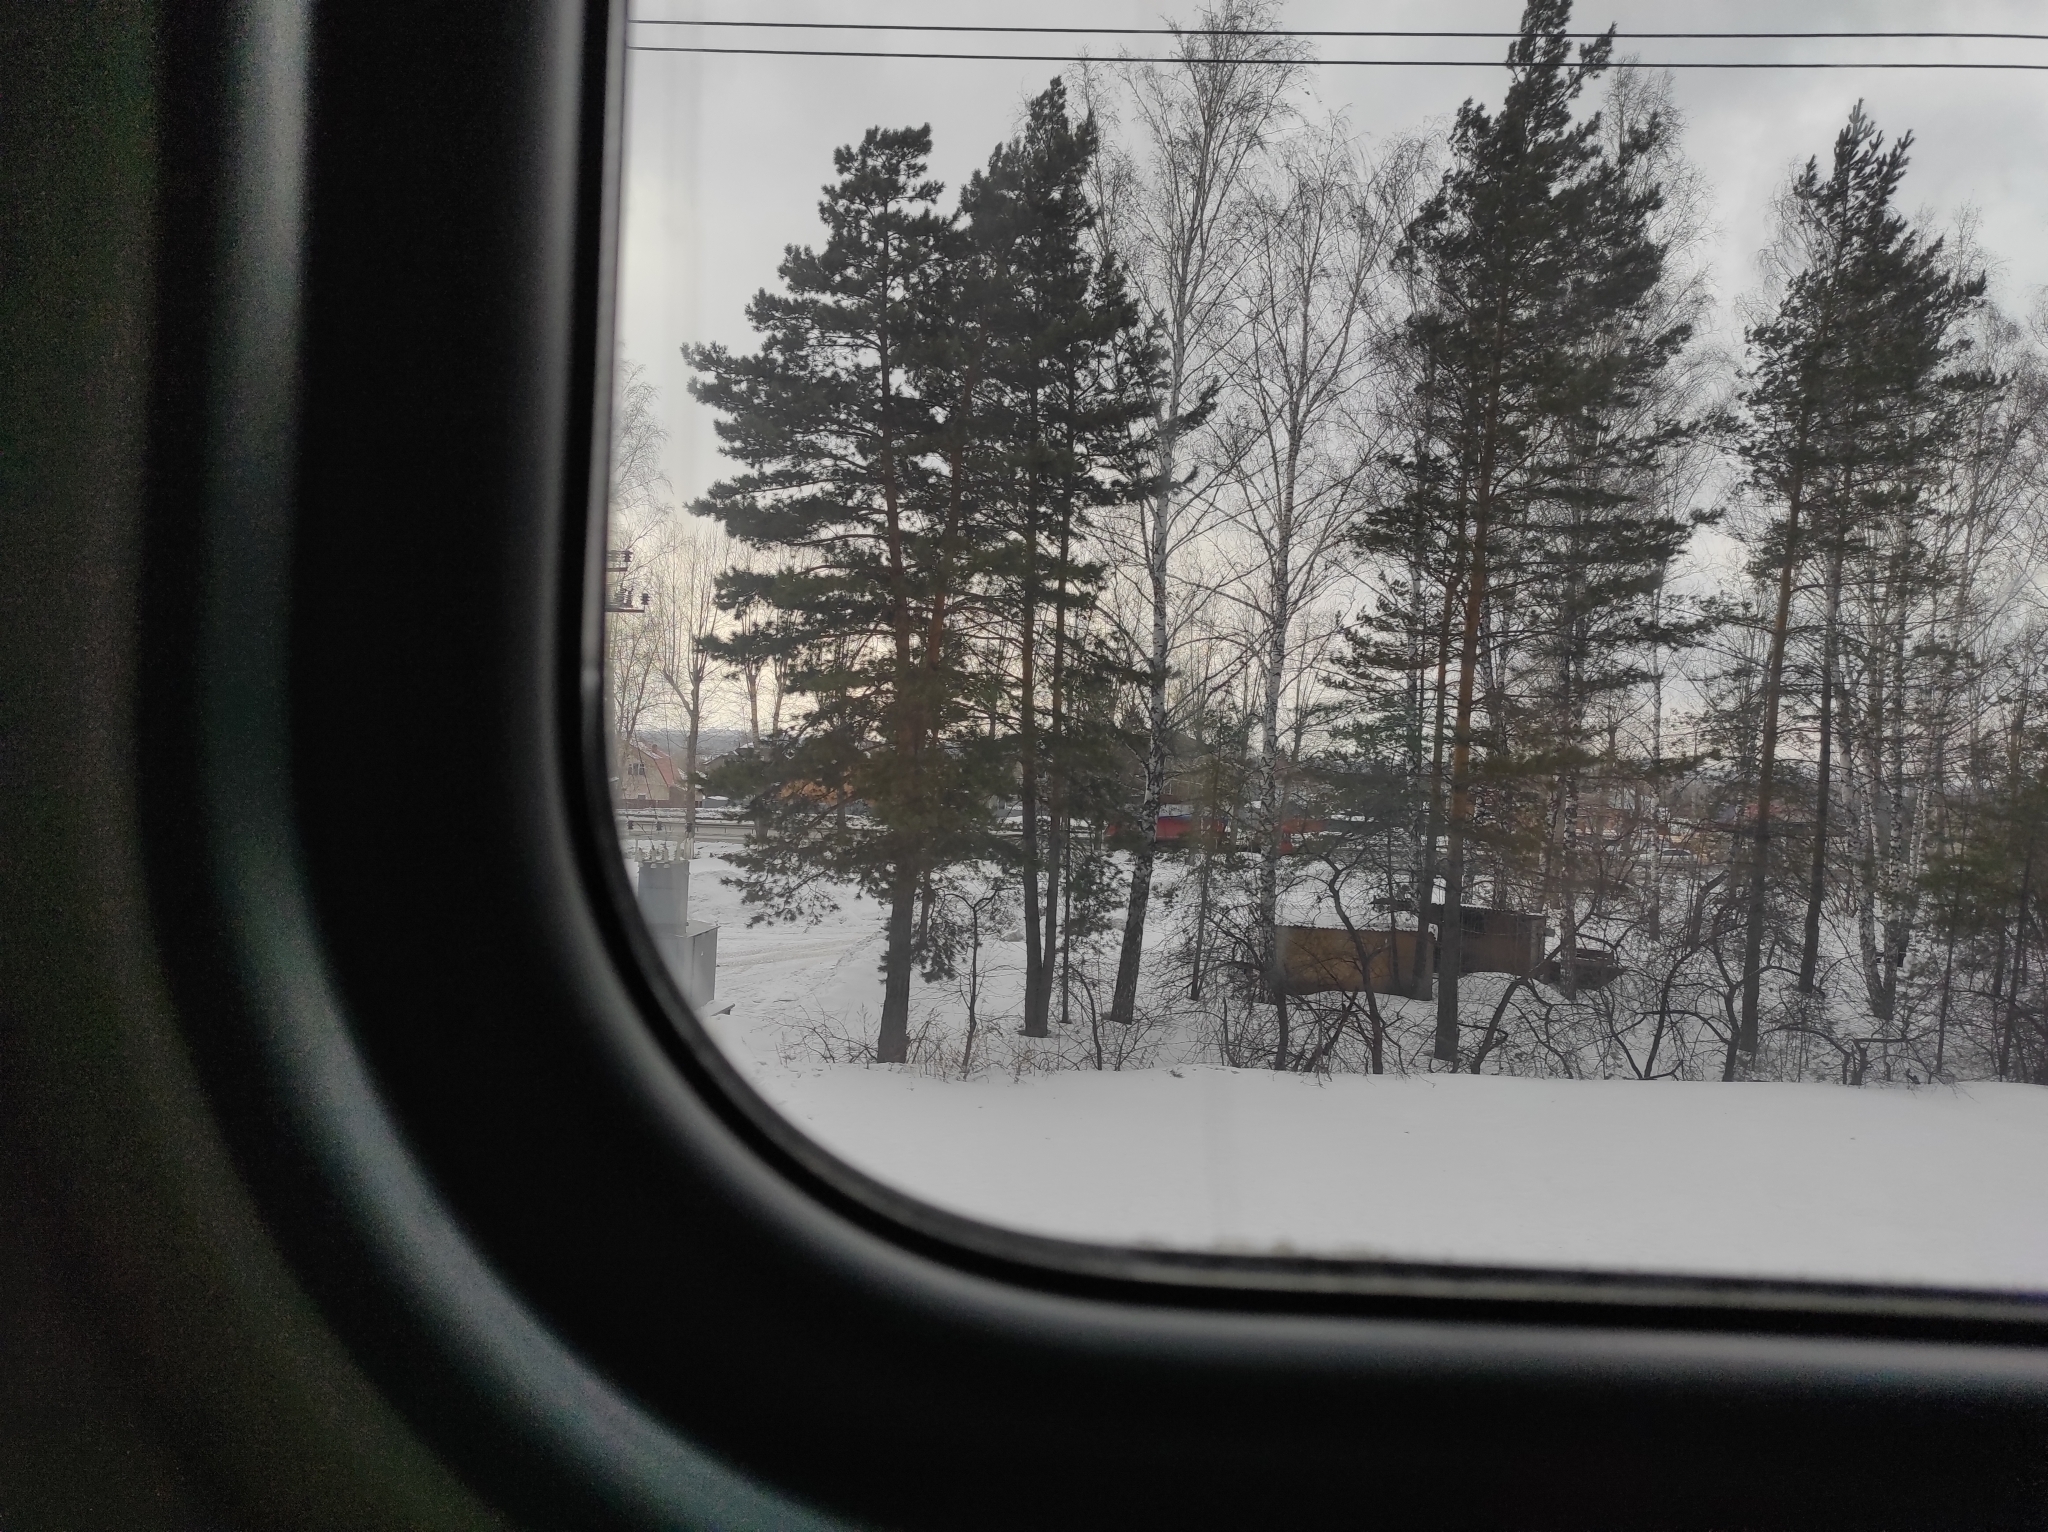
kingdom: Plantae
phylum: Tracheophyta
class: Pinopsida
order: Pinales
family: Pinaceae
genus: Pinus
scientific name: Pinus sylvestris
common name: Scots pine
